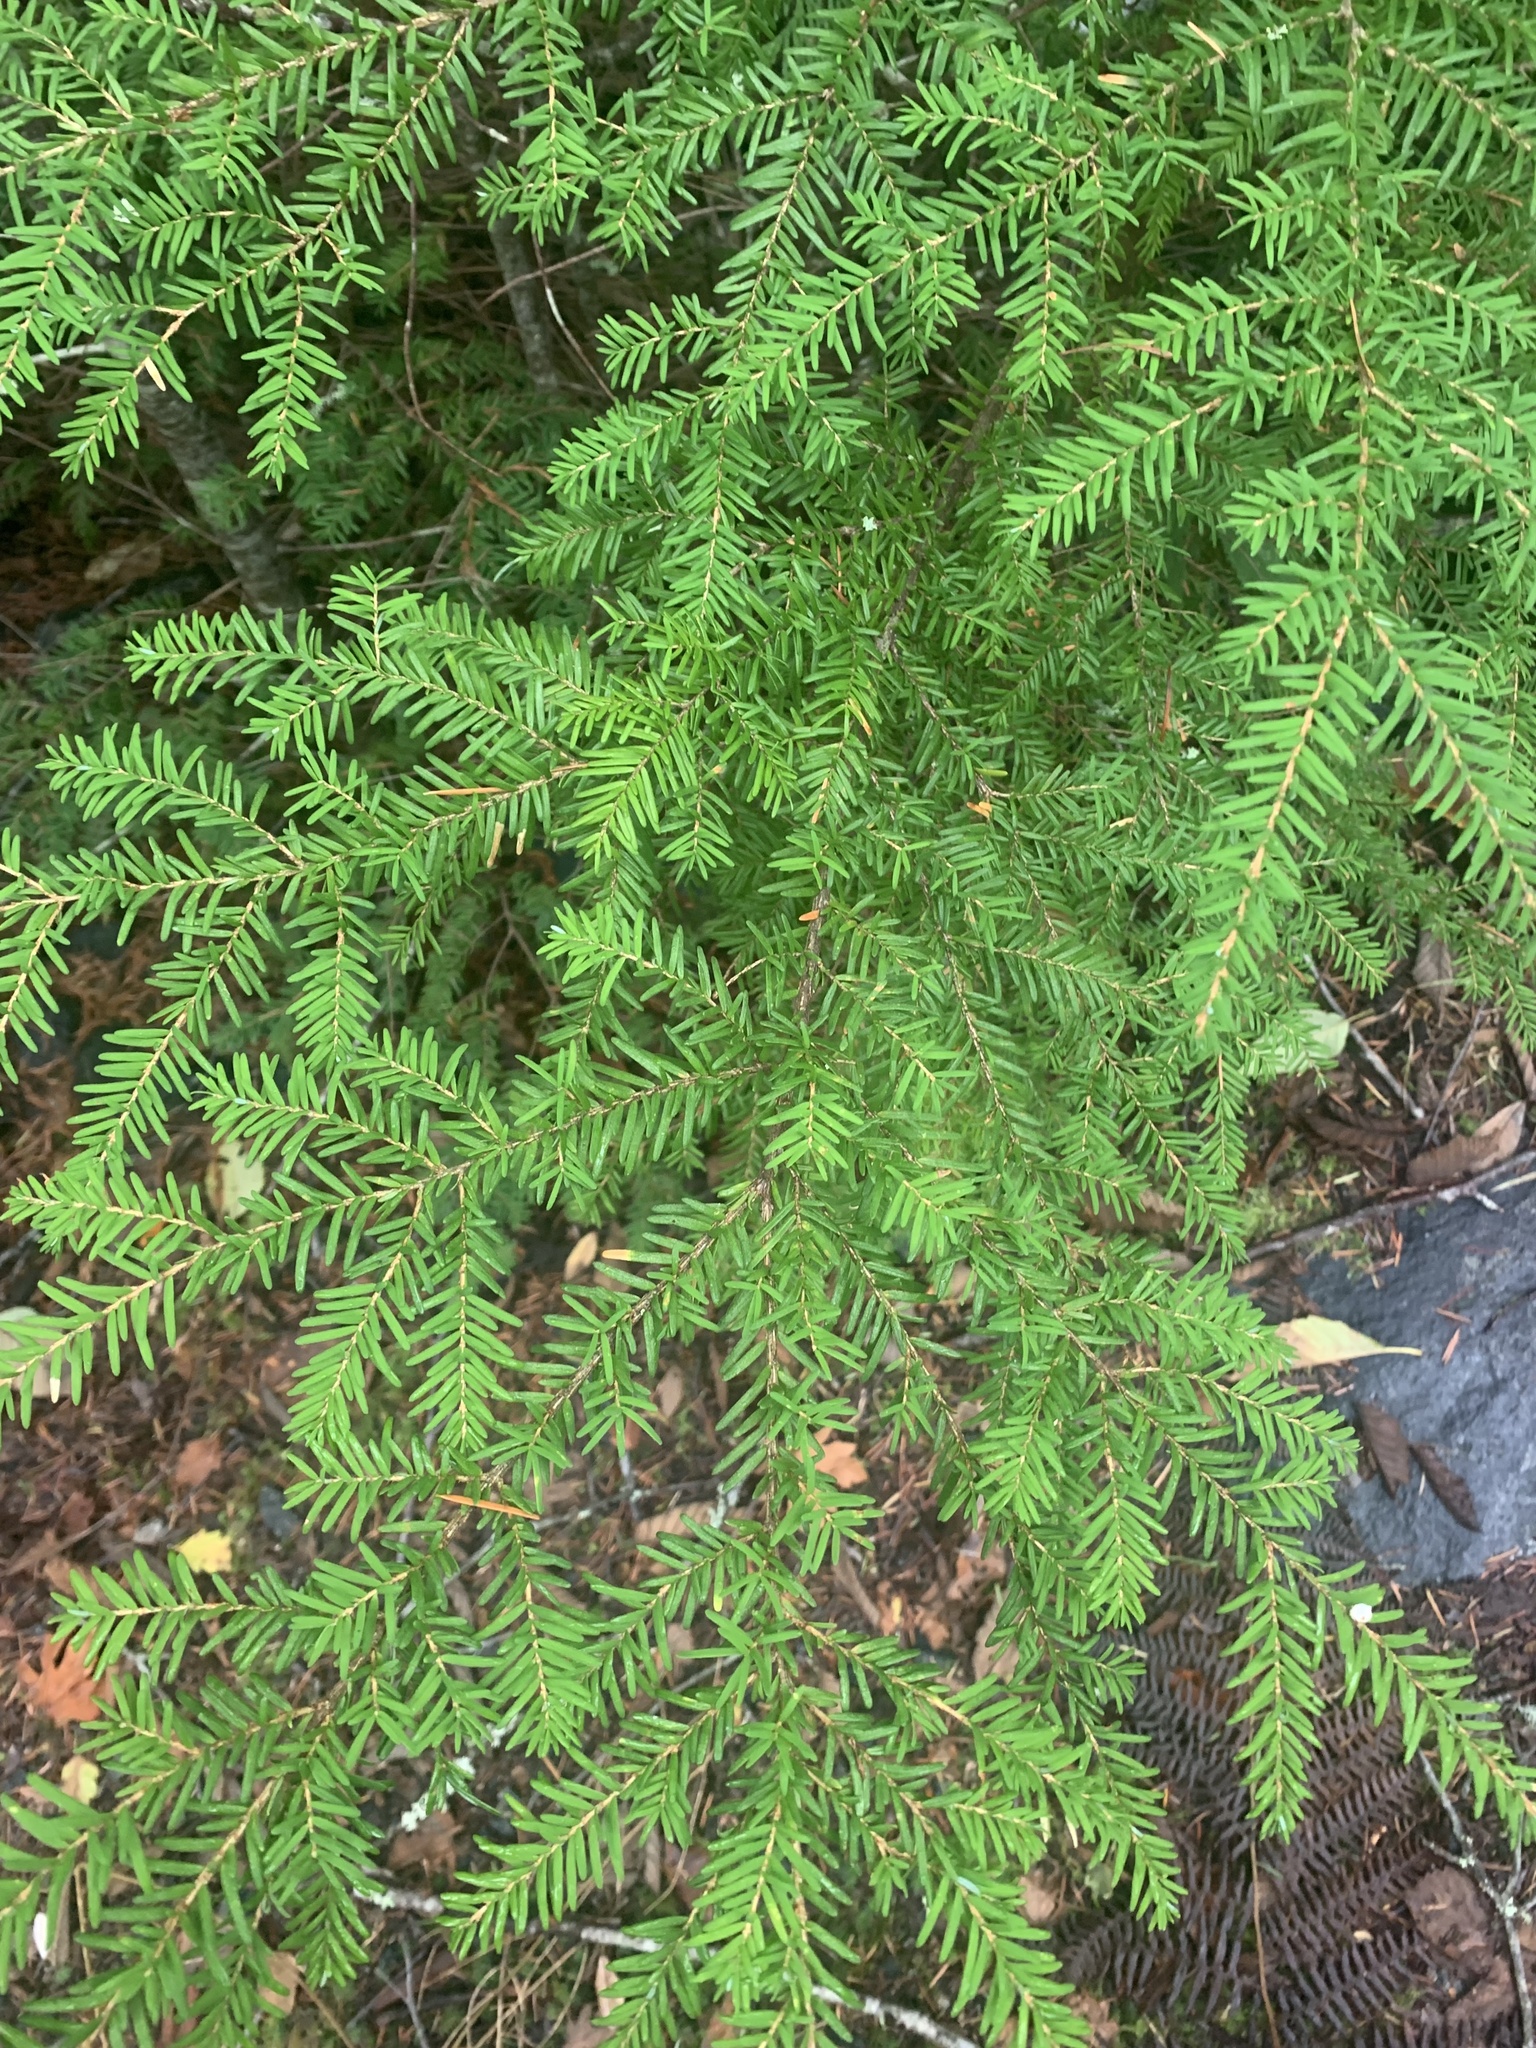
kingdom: Plantae
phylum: Tracheophyta
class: Pinopsida
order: Pinales
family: Pinaceae
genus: Tsuga
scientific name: Tsuga heterophylla
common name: Western hemlock
